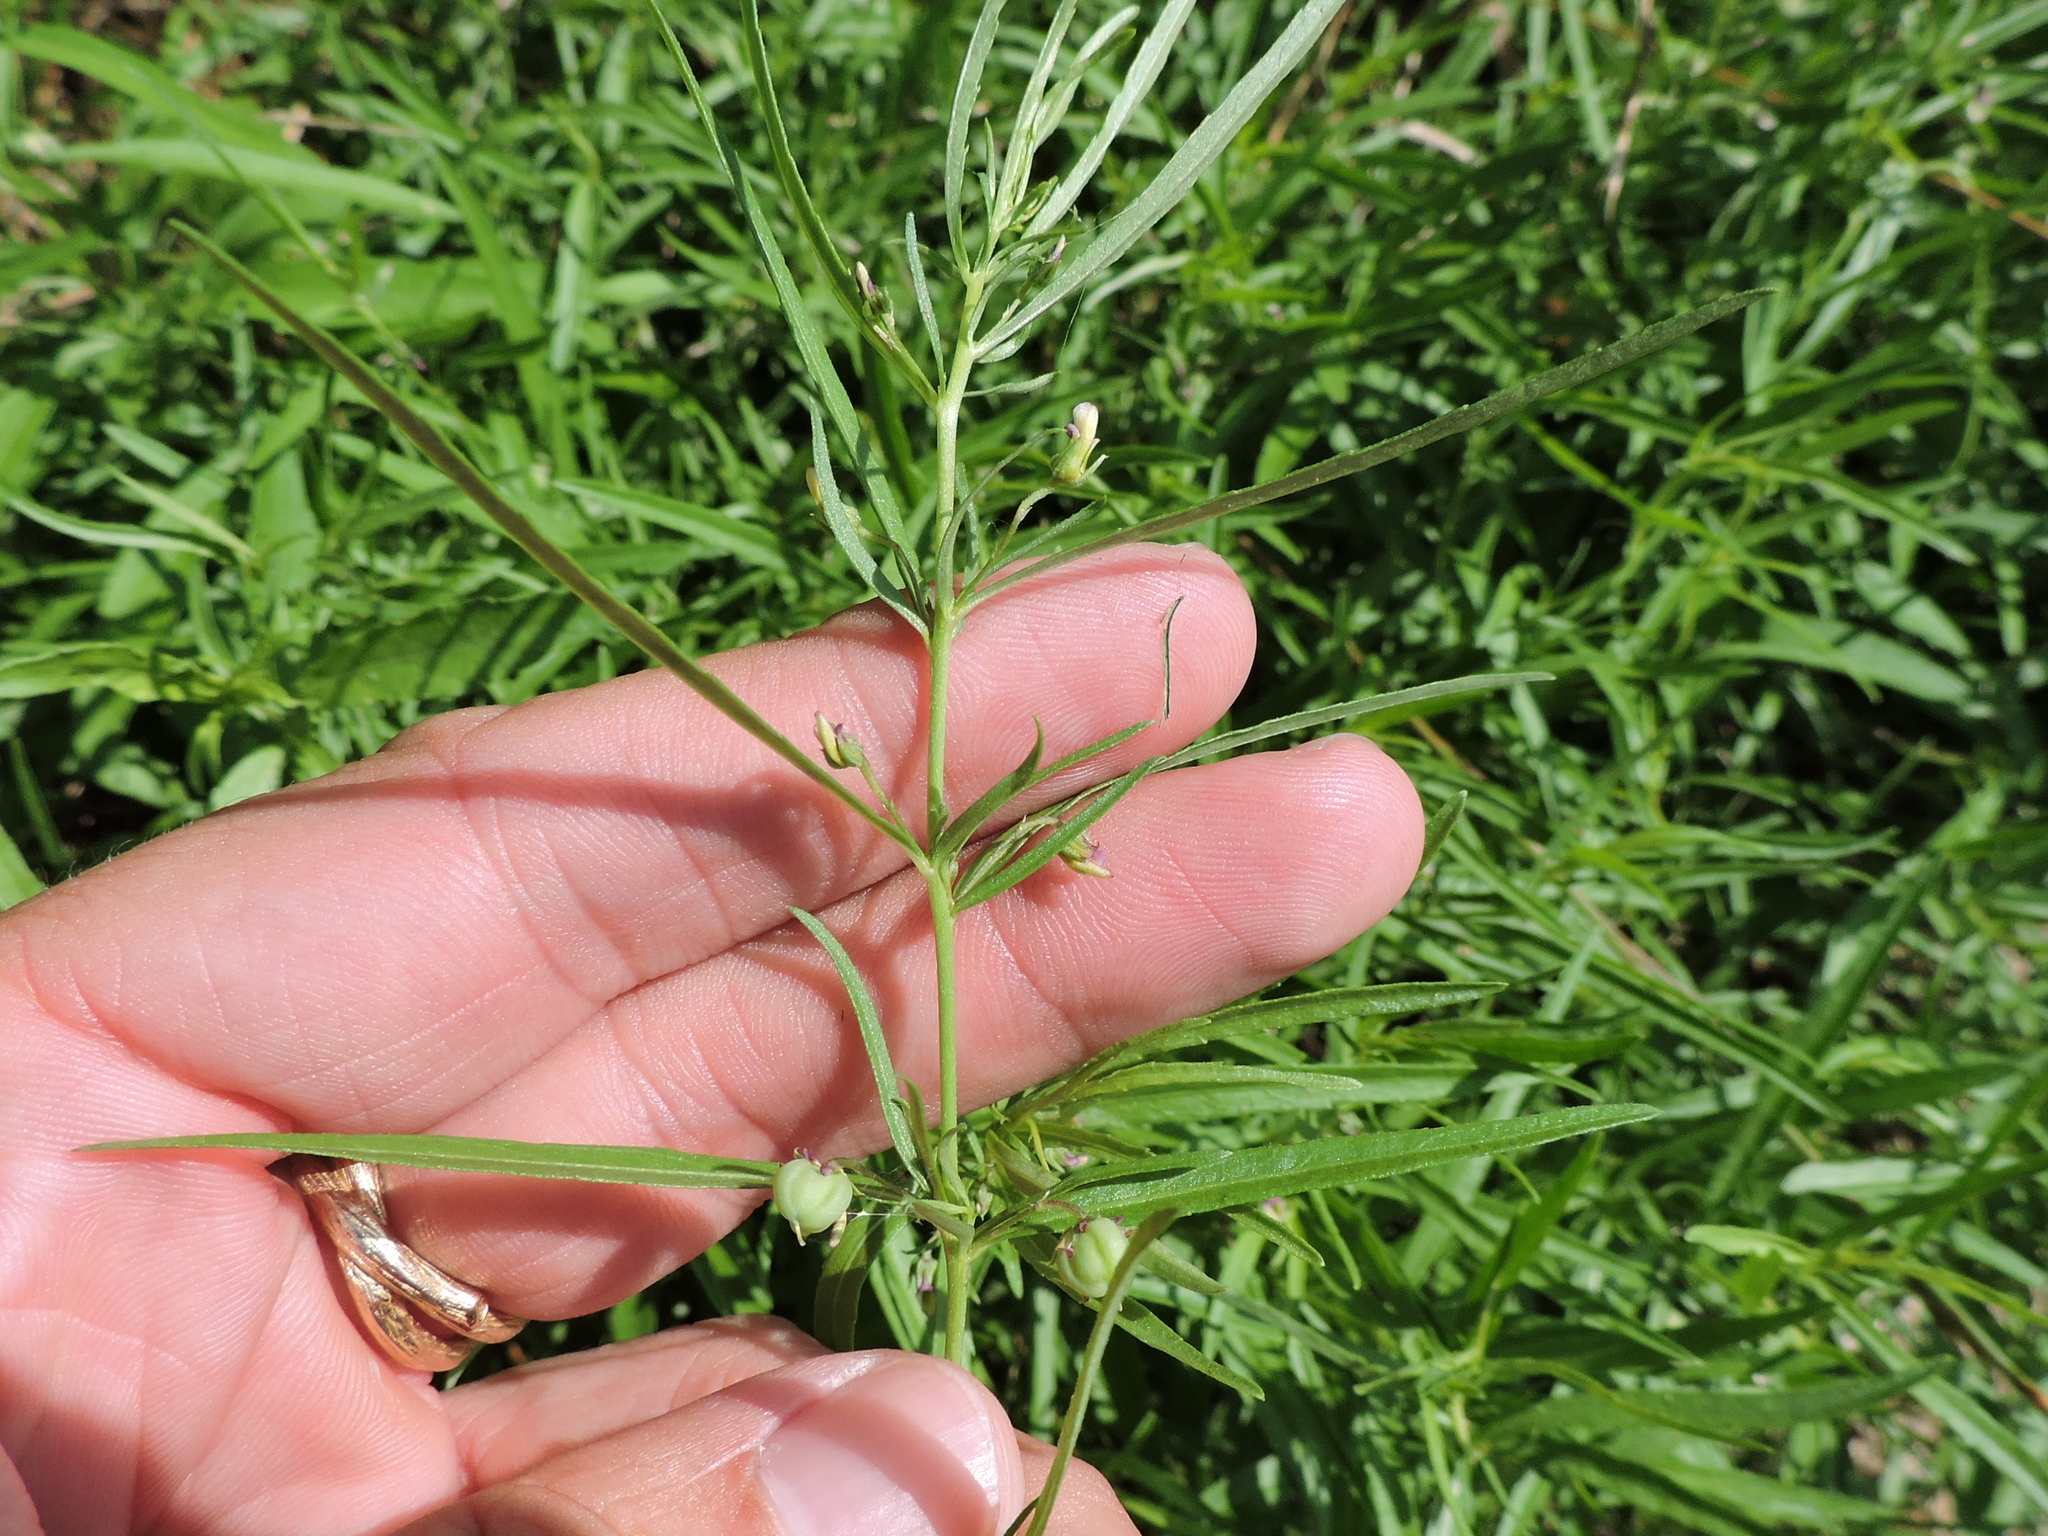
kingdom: Plantae
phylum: Tracheophyta
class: Magnoliopsida
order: Malpighiales
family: Violaceae
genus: Pombalia
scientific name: Pombalia verticillata
